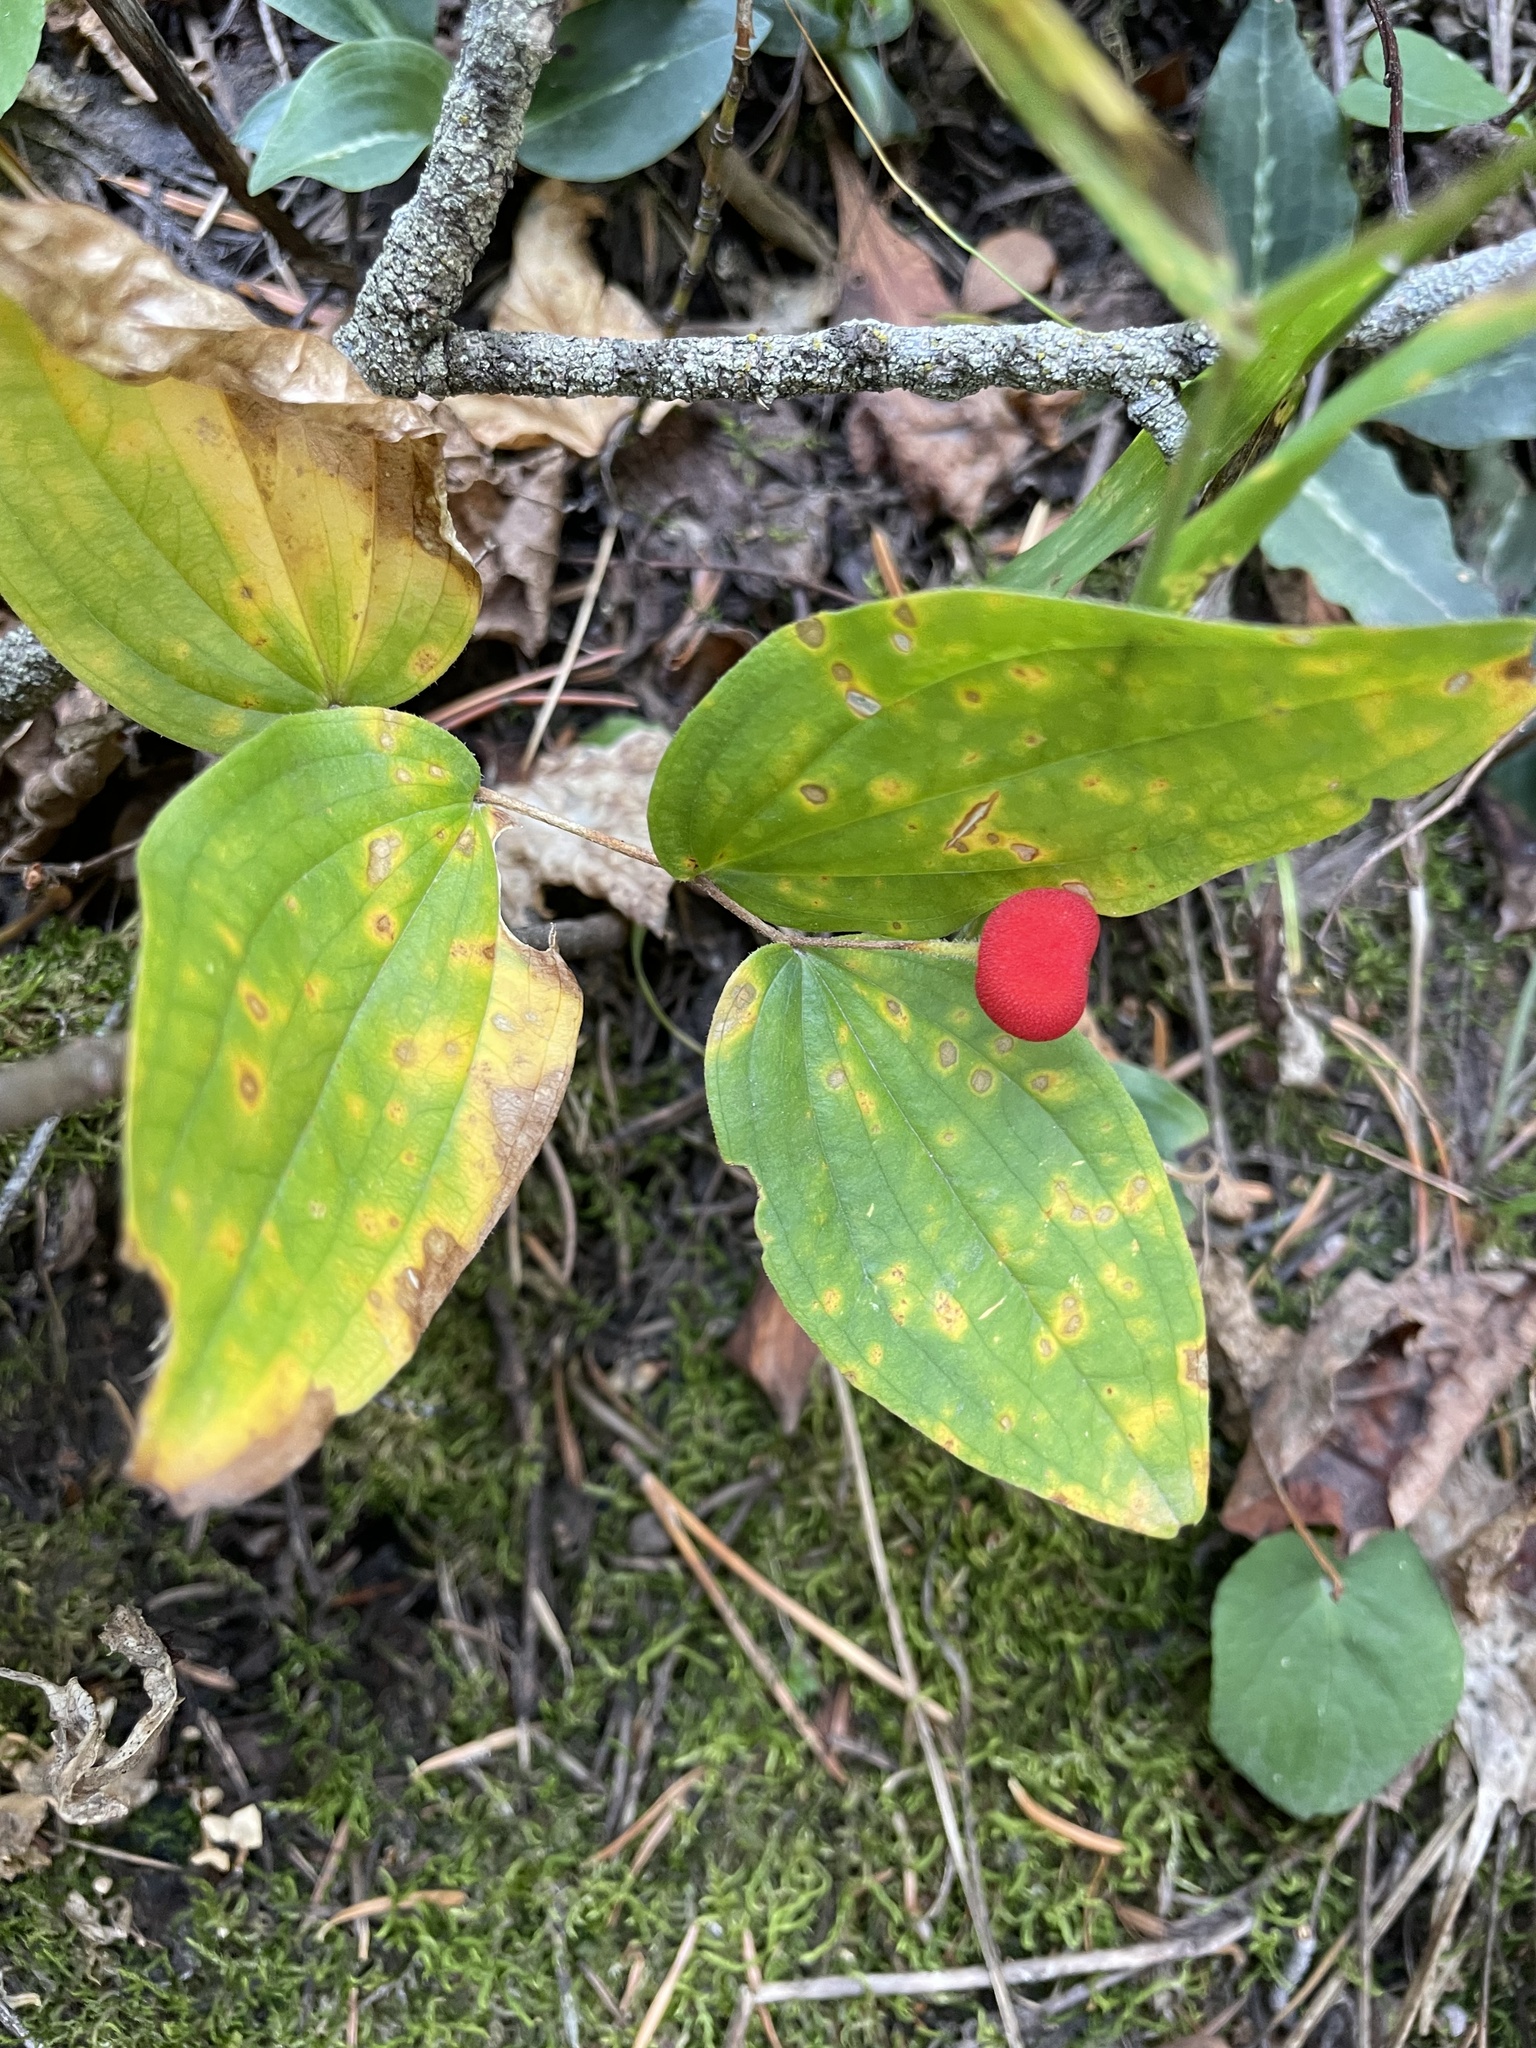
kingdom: Plantae
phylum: Tracheophyta
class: Liliopsida
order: Liliales
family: Liliaceae
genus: Prosartes
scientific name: Prosartes trachycarpa
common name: Rough-fruit fairy-bells
